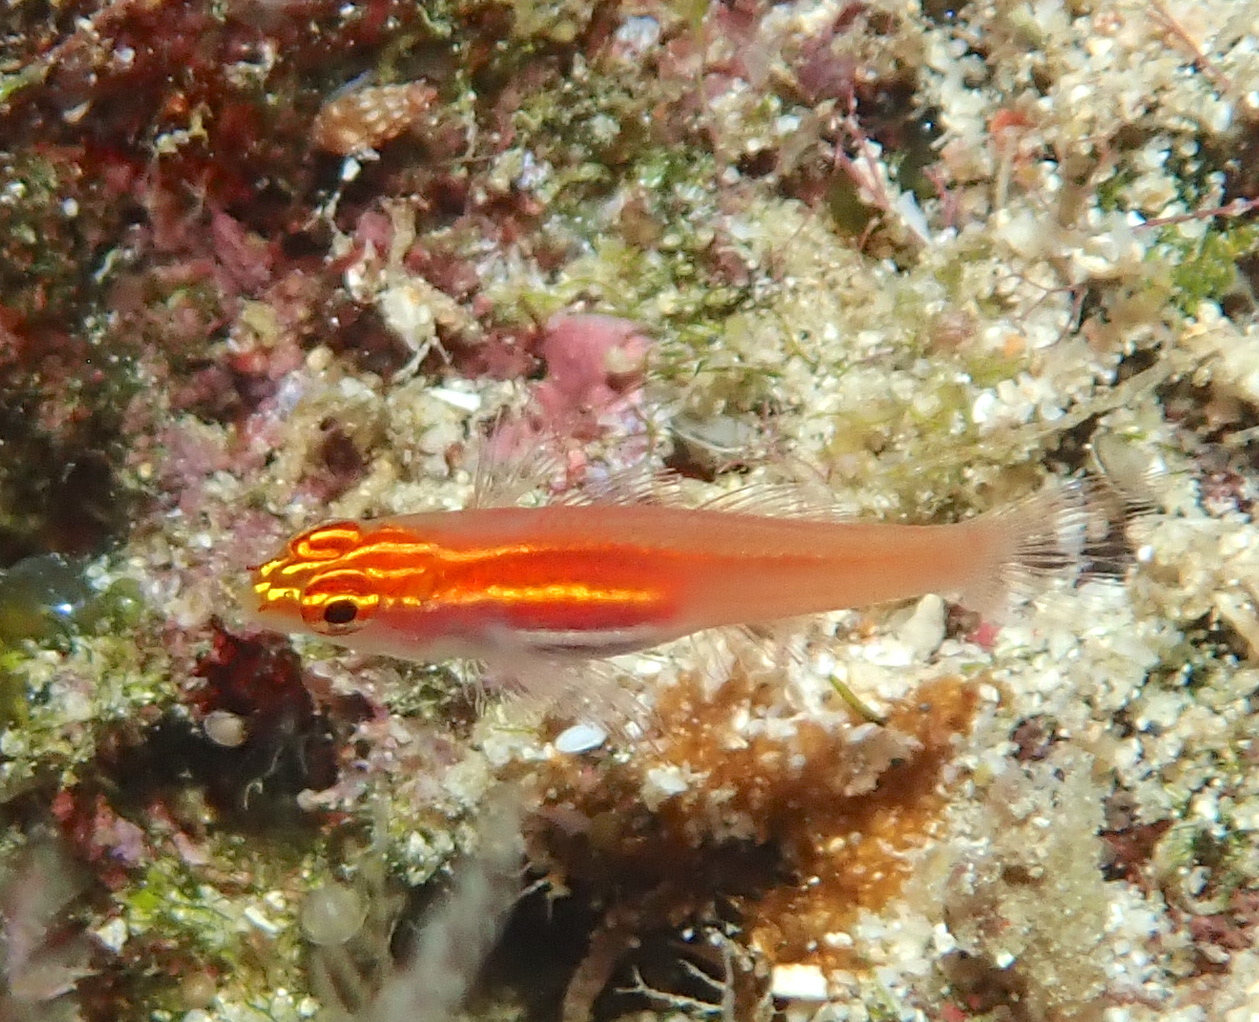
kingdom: Animalia
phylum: Chordata
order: Perciformes
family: Gobiidae
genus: Eviota
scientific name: Eviota atriventris
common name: Blackbelly dwarfgoby
